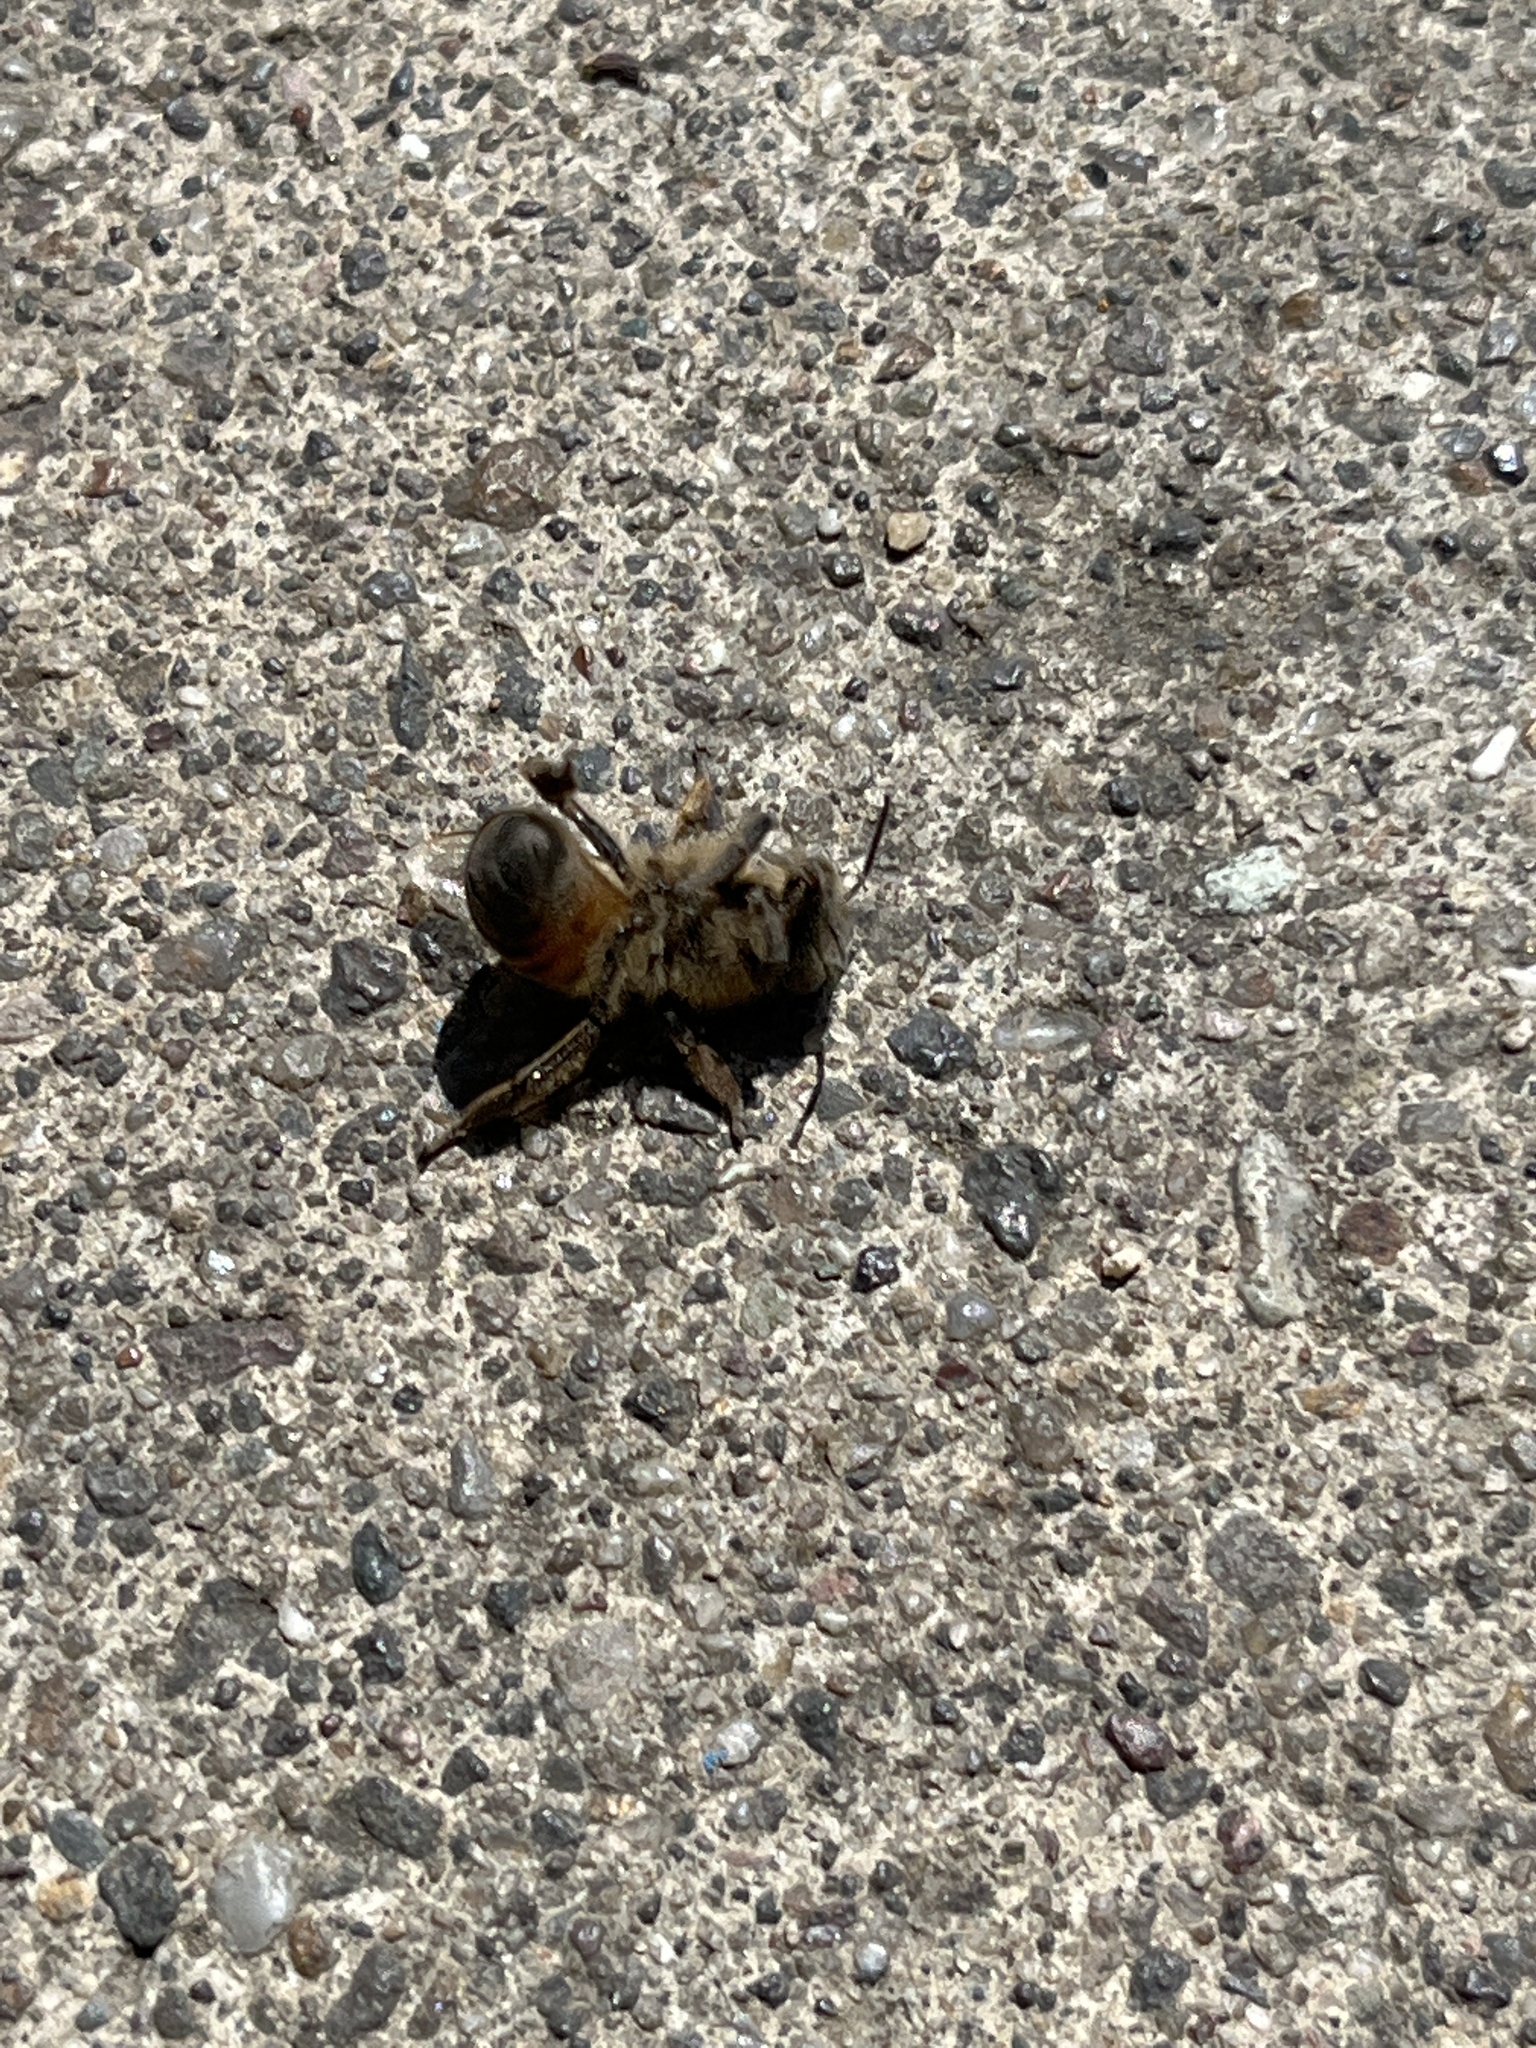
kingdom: Animalia
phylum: Arthropoda
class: Insecta
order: Hymenoptera
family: Apidae
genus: Apis
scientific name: Apis mellifera
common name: Honey bee
